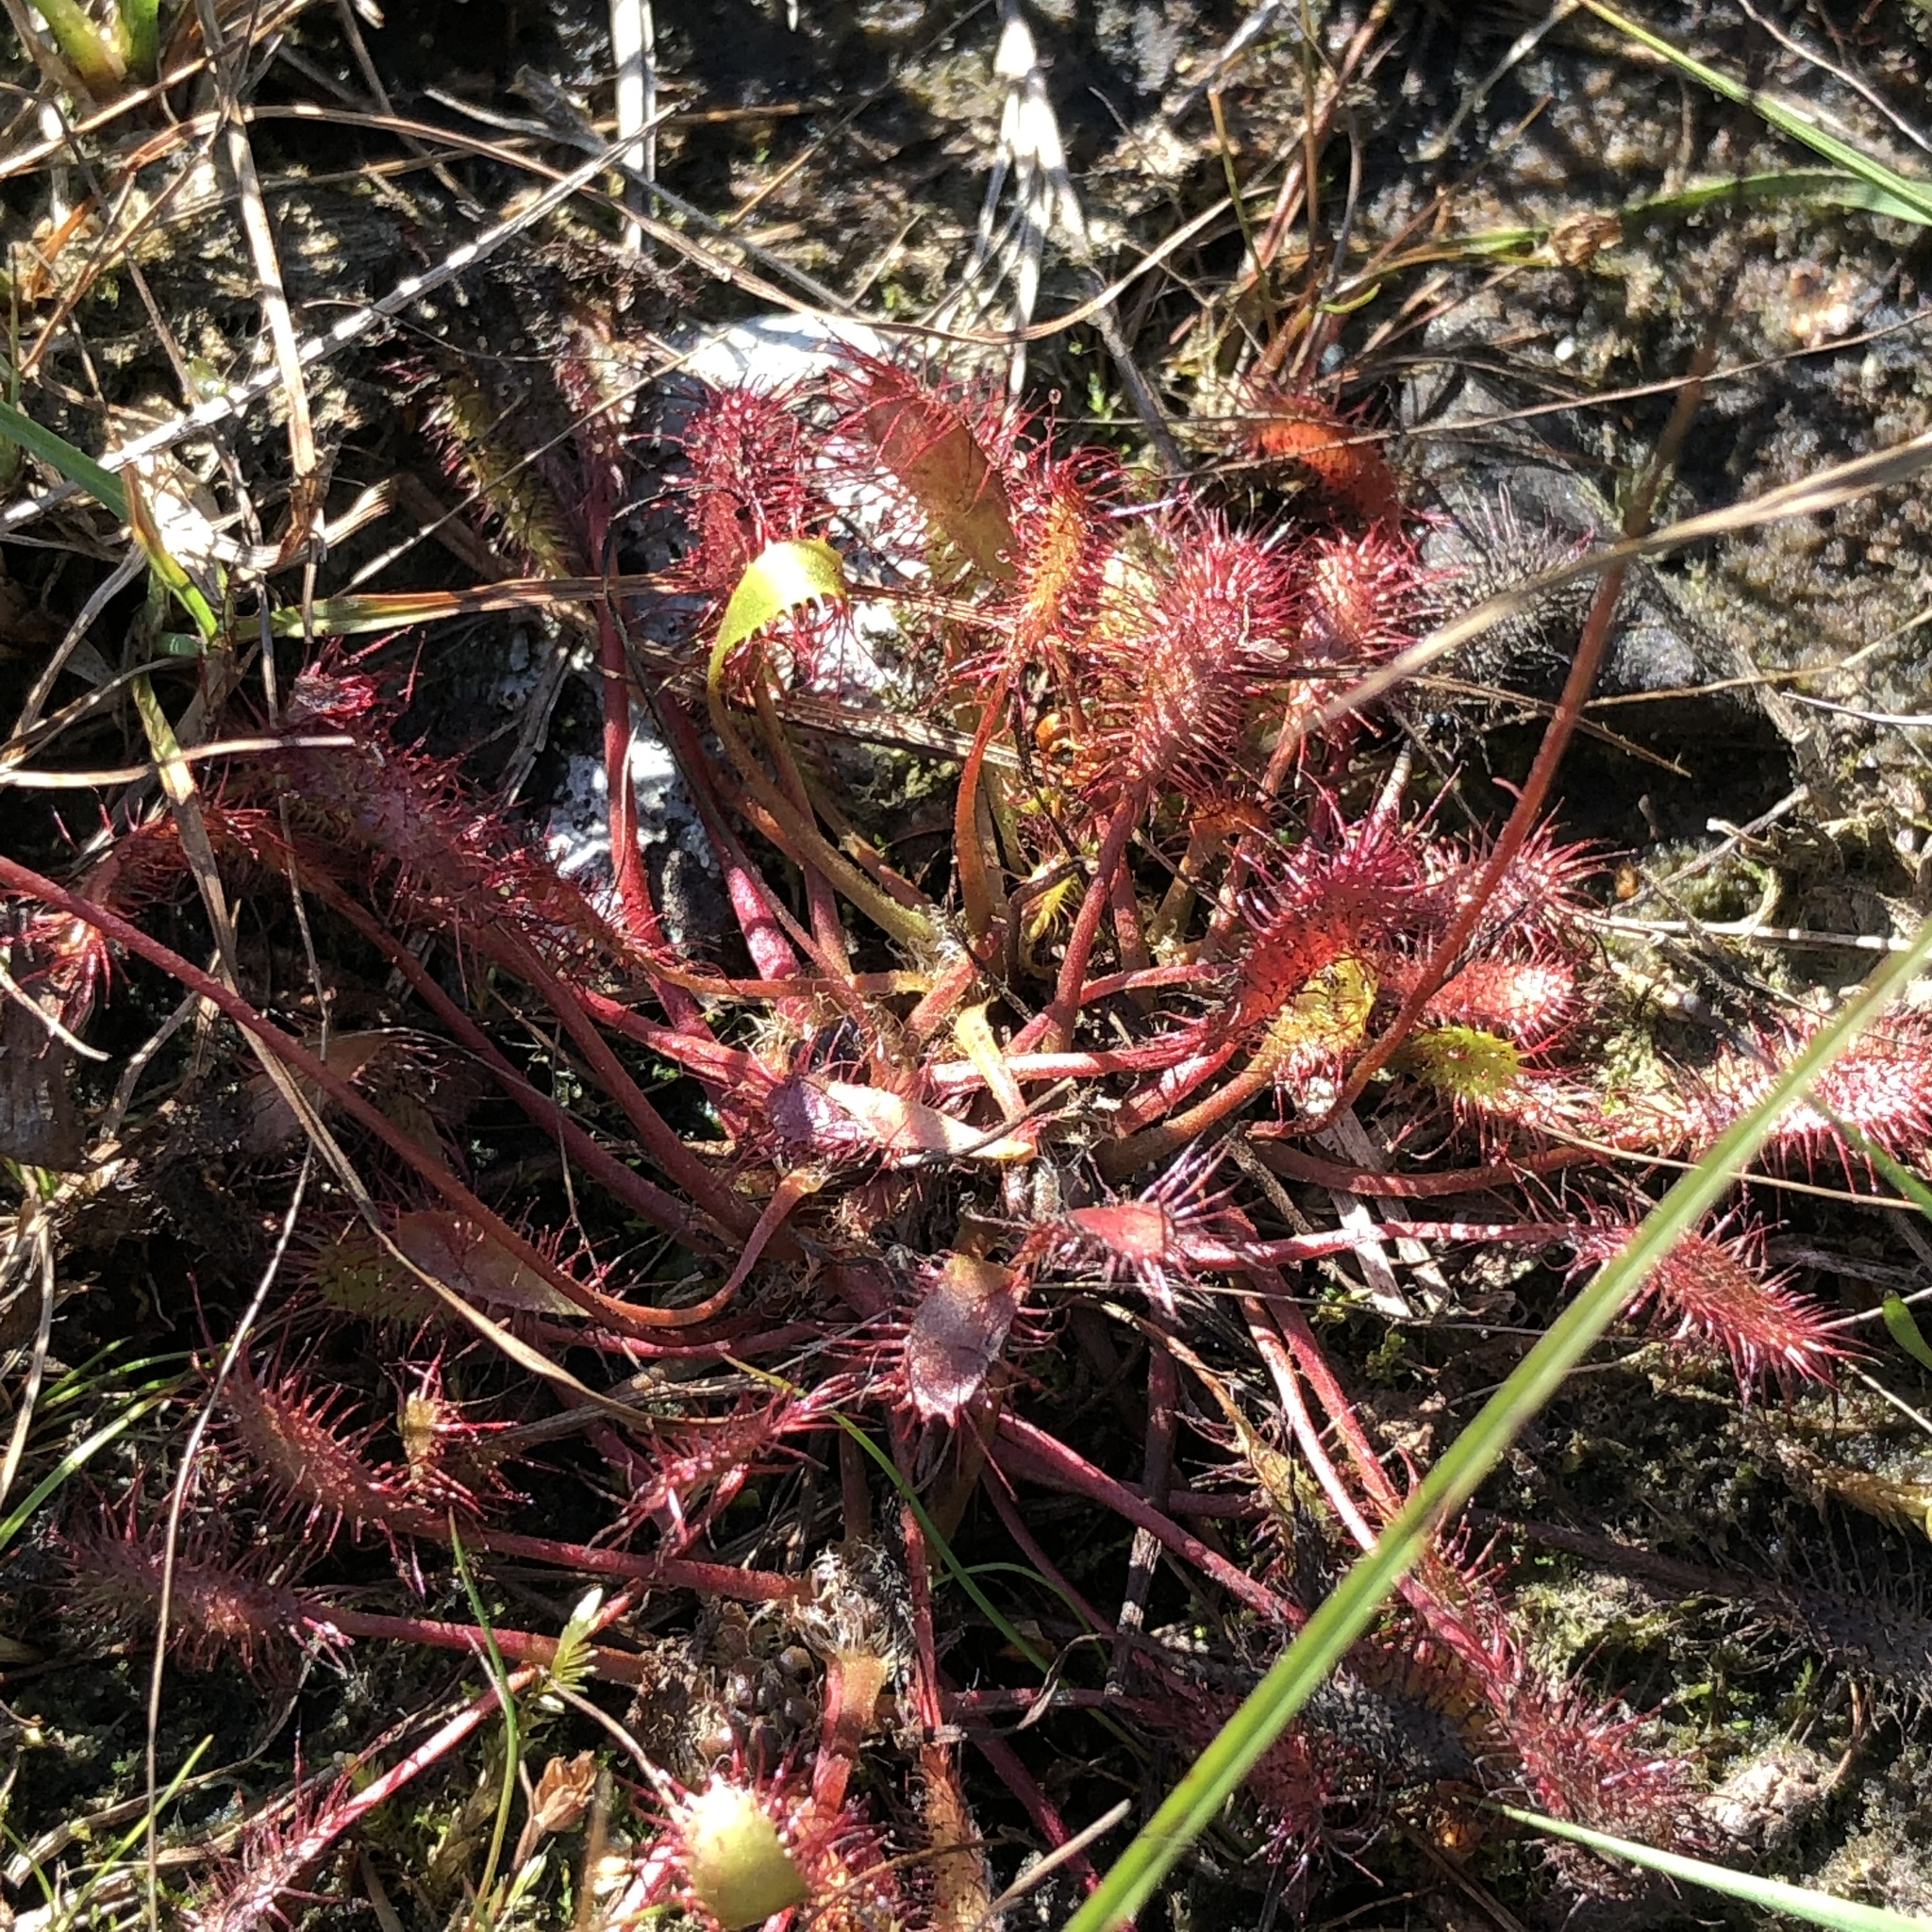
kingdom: Plantae
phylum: Tracheophyta
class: Magnoliopsida
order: Caryophyllales
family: Droseraceae
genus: Drosera
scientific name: Drosera anglica
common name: Great sundew
